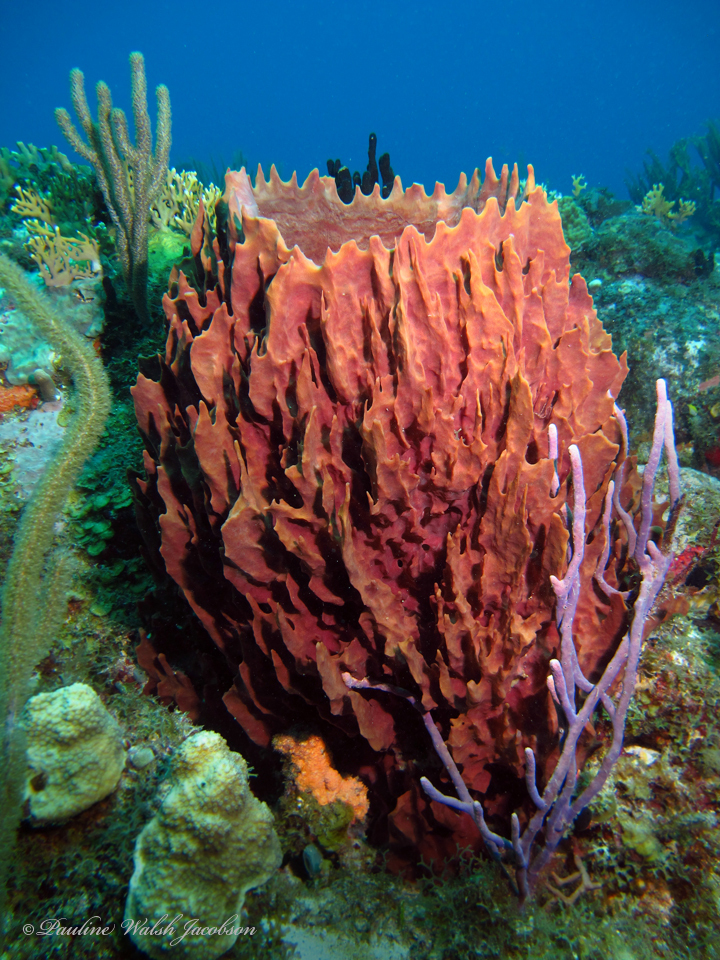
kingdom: Animalia
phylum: Porifera
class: Demospongiae
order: Haplosclerida
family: Petrosiidae
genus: Xestospongia
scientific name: Xestospongia muta
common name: Giant barrel sponge
